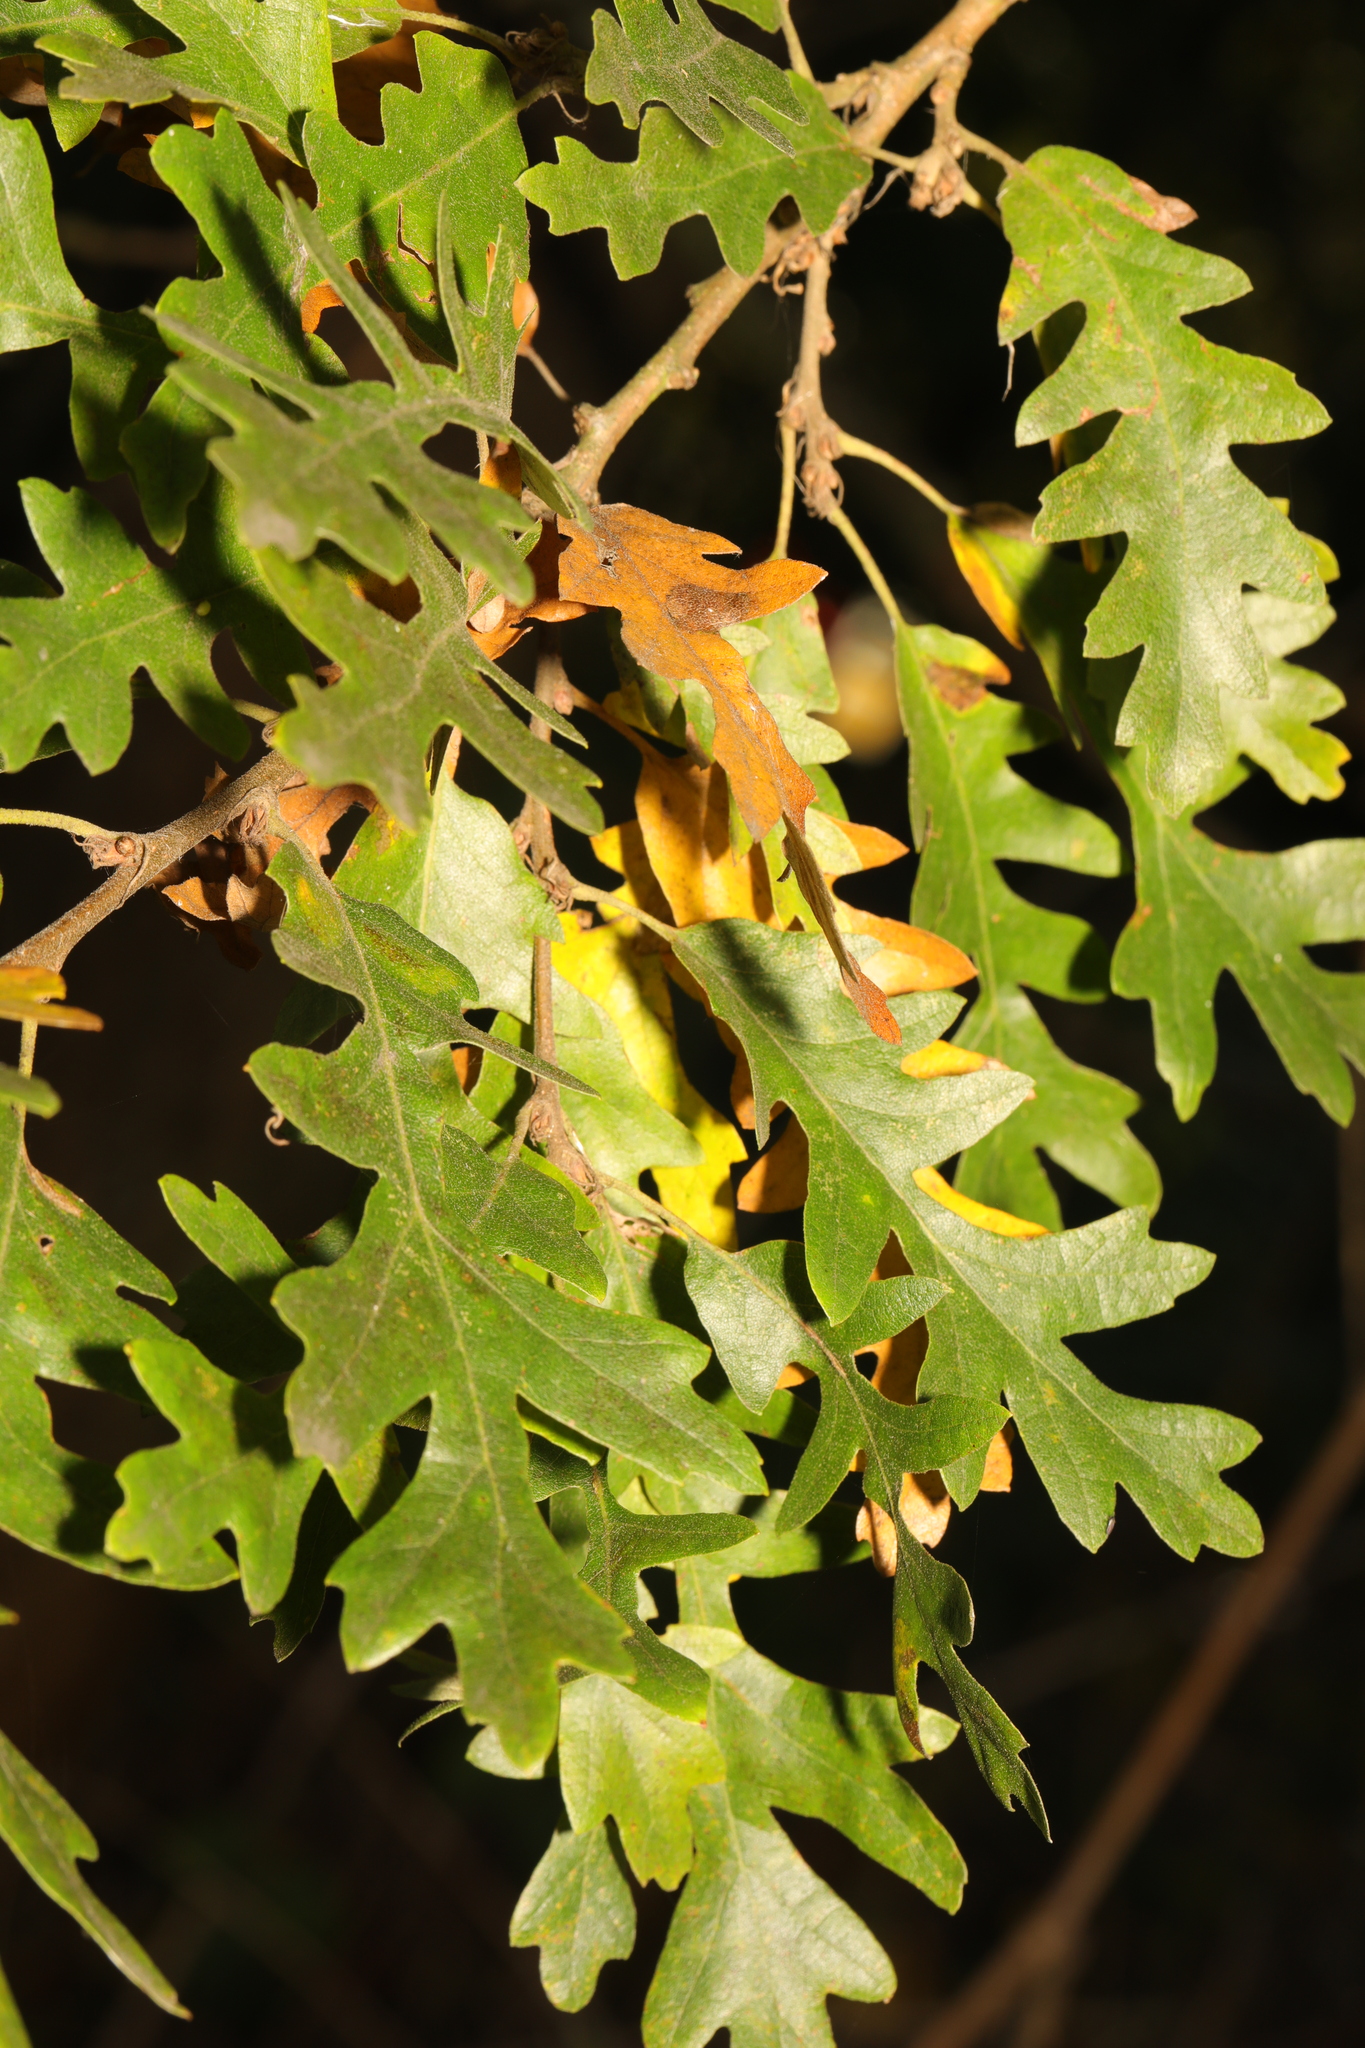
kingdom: Plantae
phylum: Tracheophyta
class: Magnoliopsida
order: Fagales
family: Fagaceae
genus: Quercus
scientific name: Quercus cerris
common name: Turkey oak
